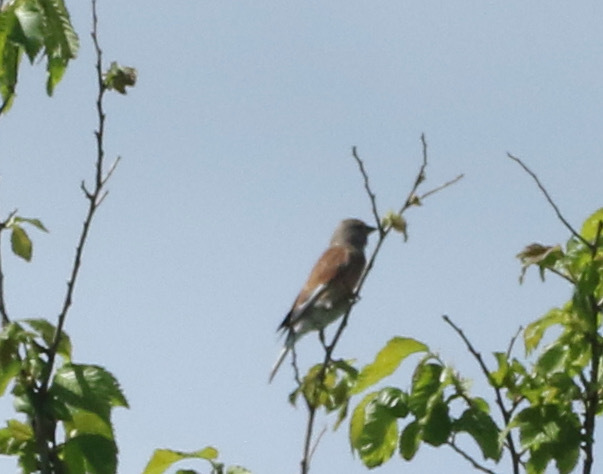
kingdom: Animalia
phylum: Chordata
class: Aves
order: Passeriformes
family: Fringillidae
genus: Linaria
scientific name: Linaria cannabina
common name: Common linnet
